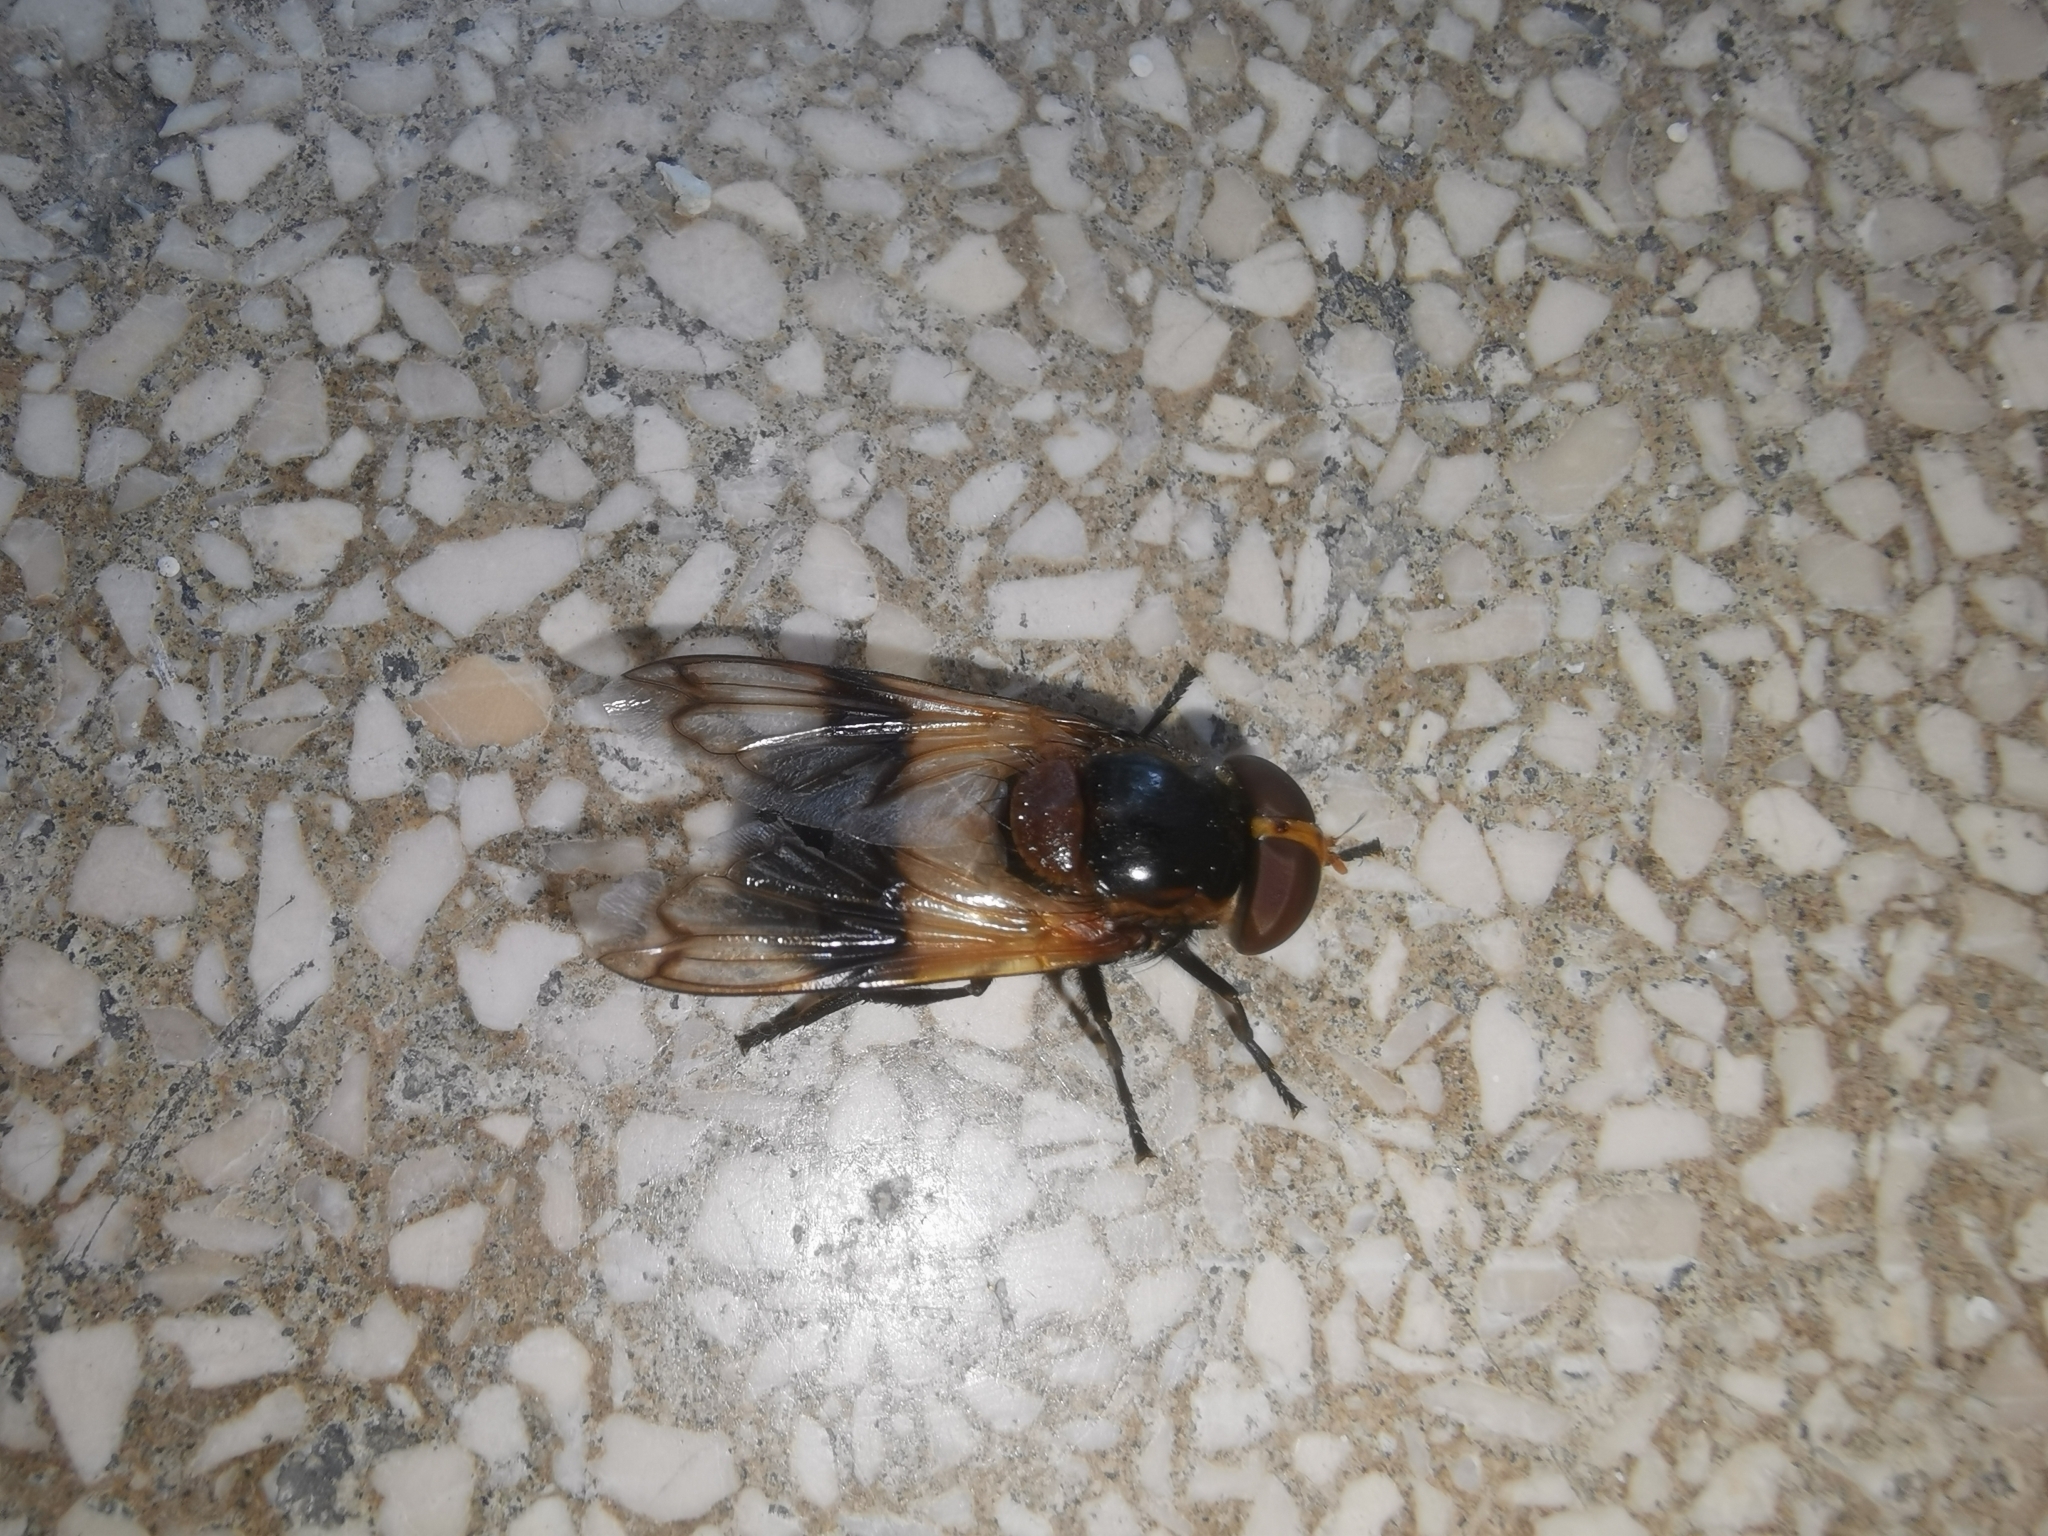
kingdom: Animalia
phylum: Arthropoda
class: Insecta
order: Diptera
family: Syrphidae
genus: Volucella
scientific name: Volucella pellucens
